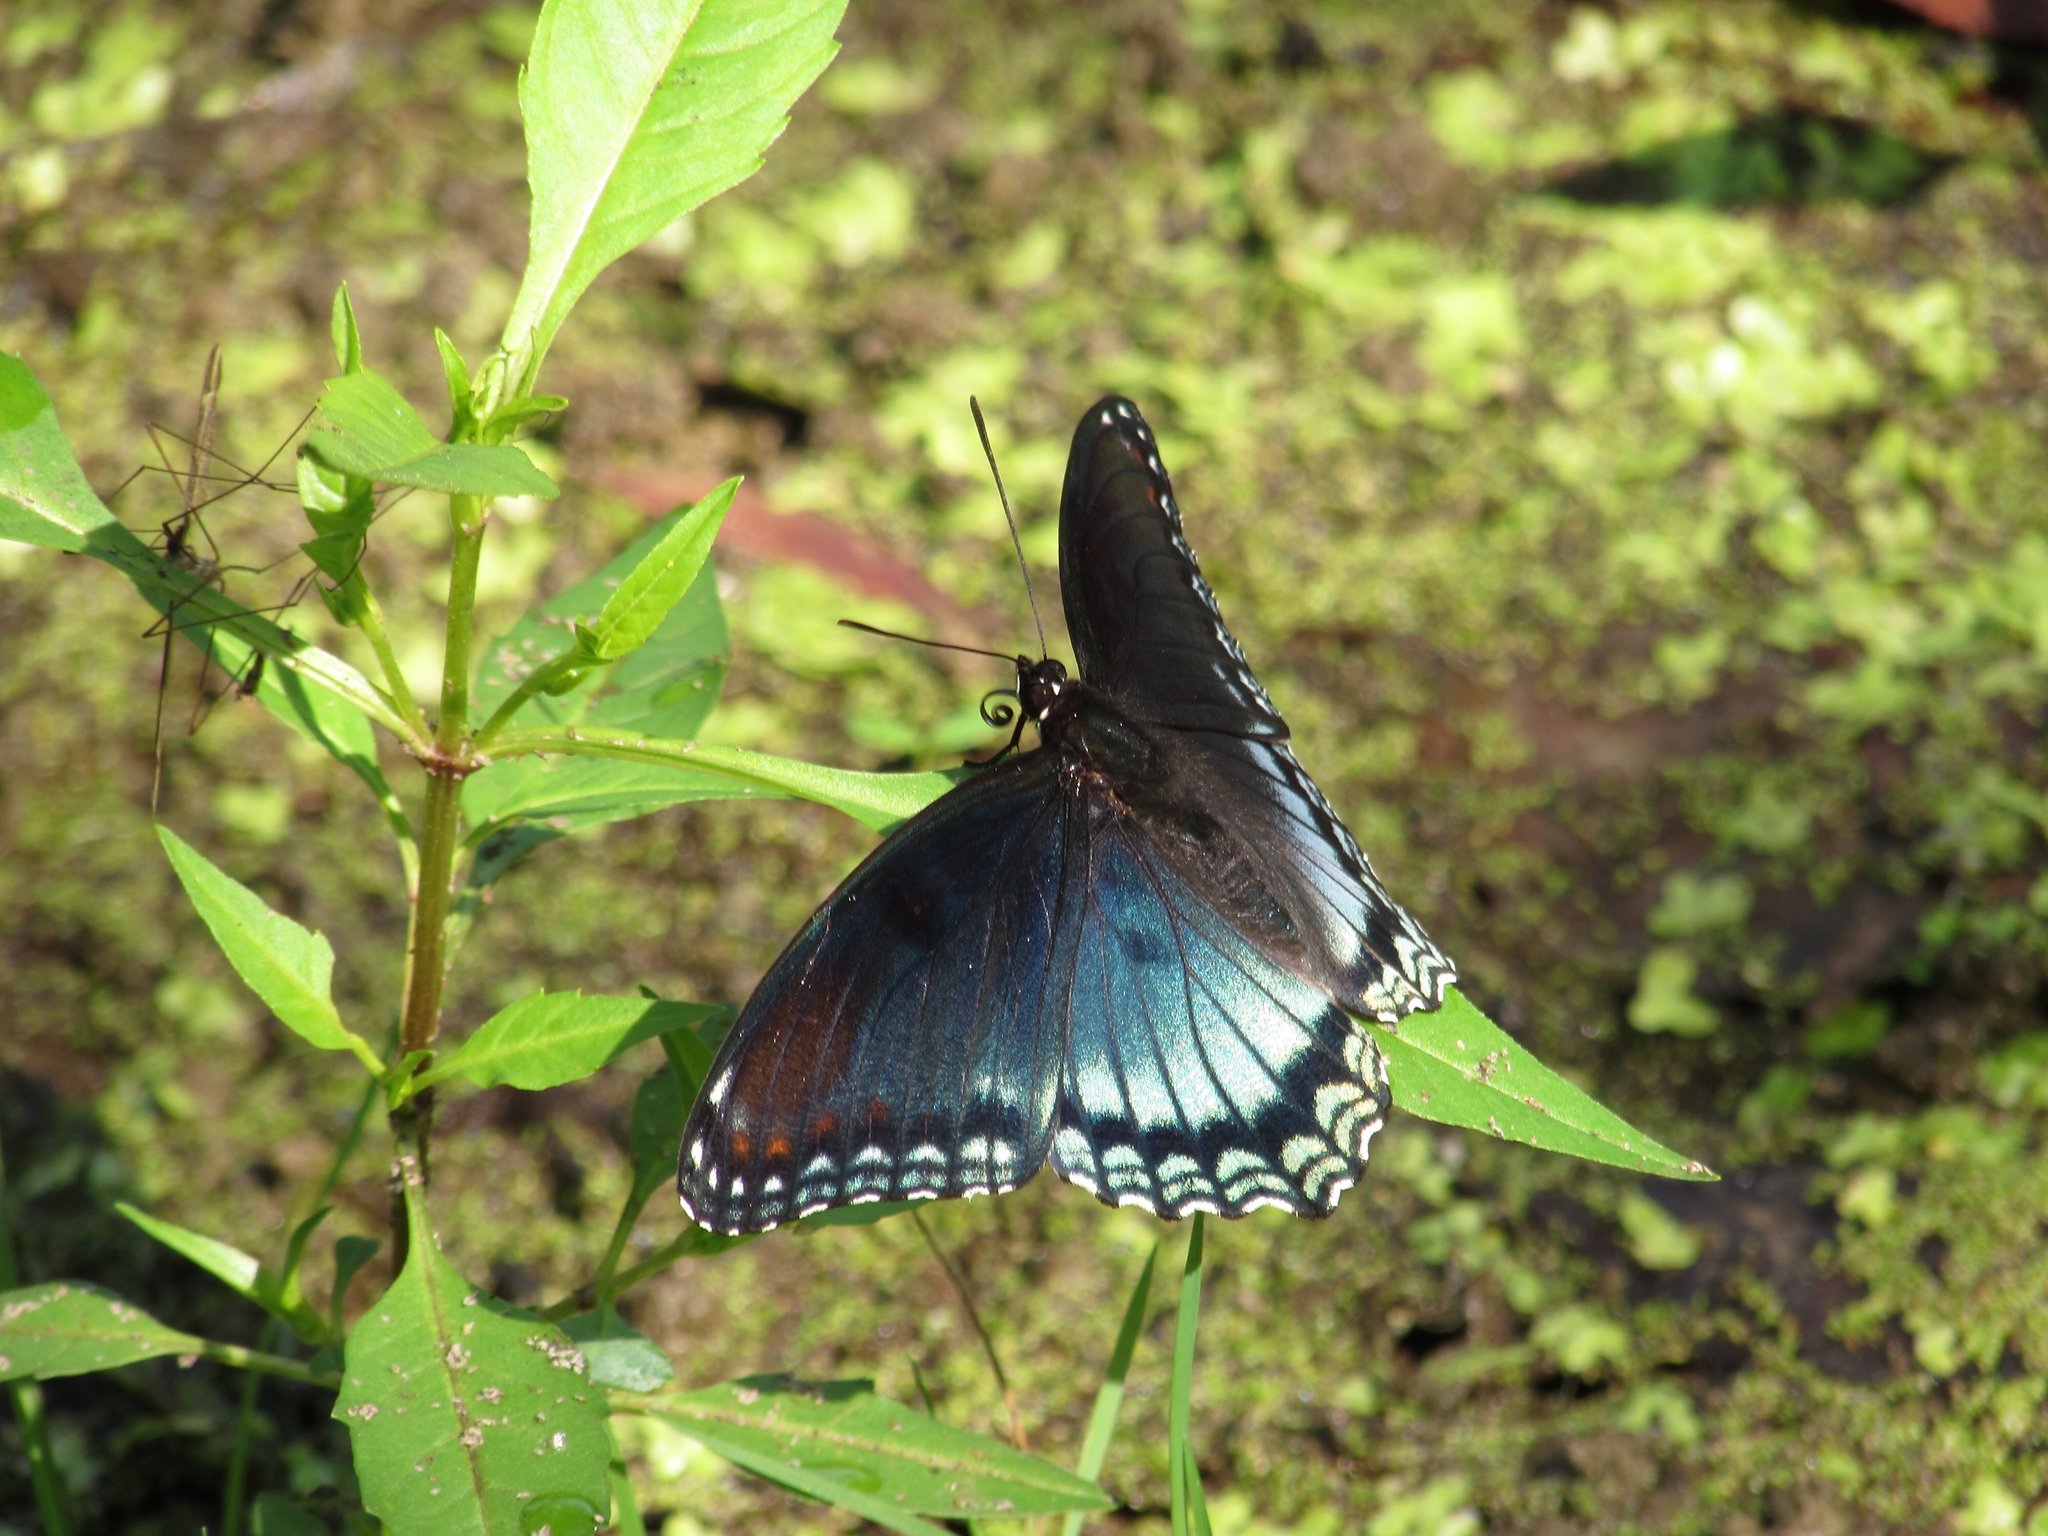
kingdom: Animalia
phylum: Arthropoda
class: Insecta
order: Lepidoptera
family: Nymphalidae
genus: Limenitis
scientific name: Limenitis arthemis
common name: Red-spotted admiral
